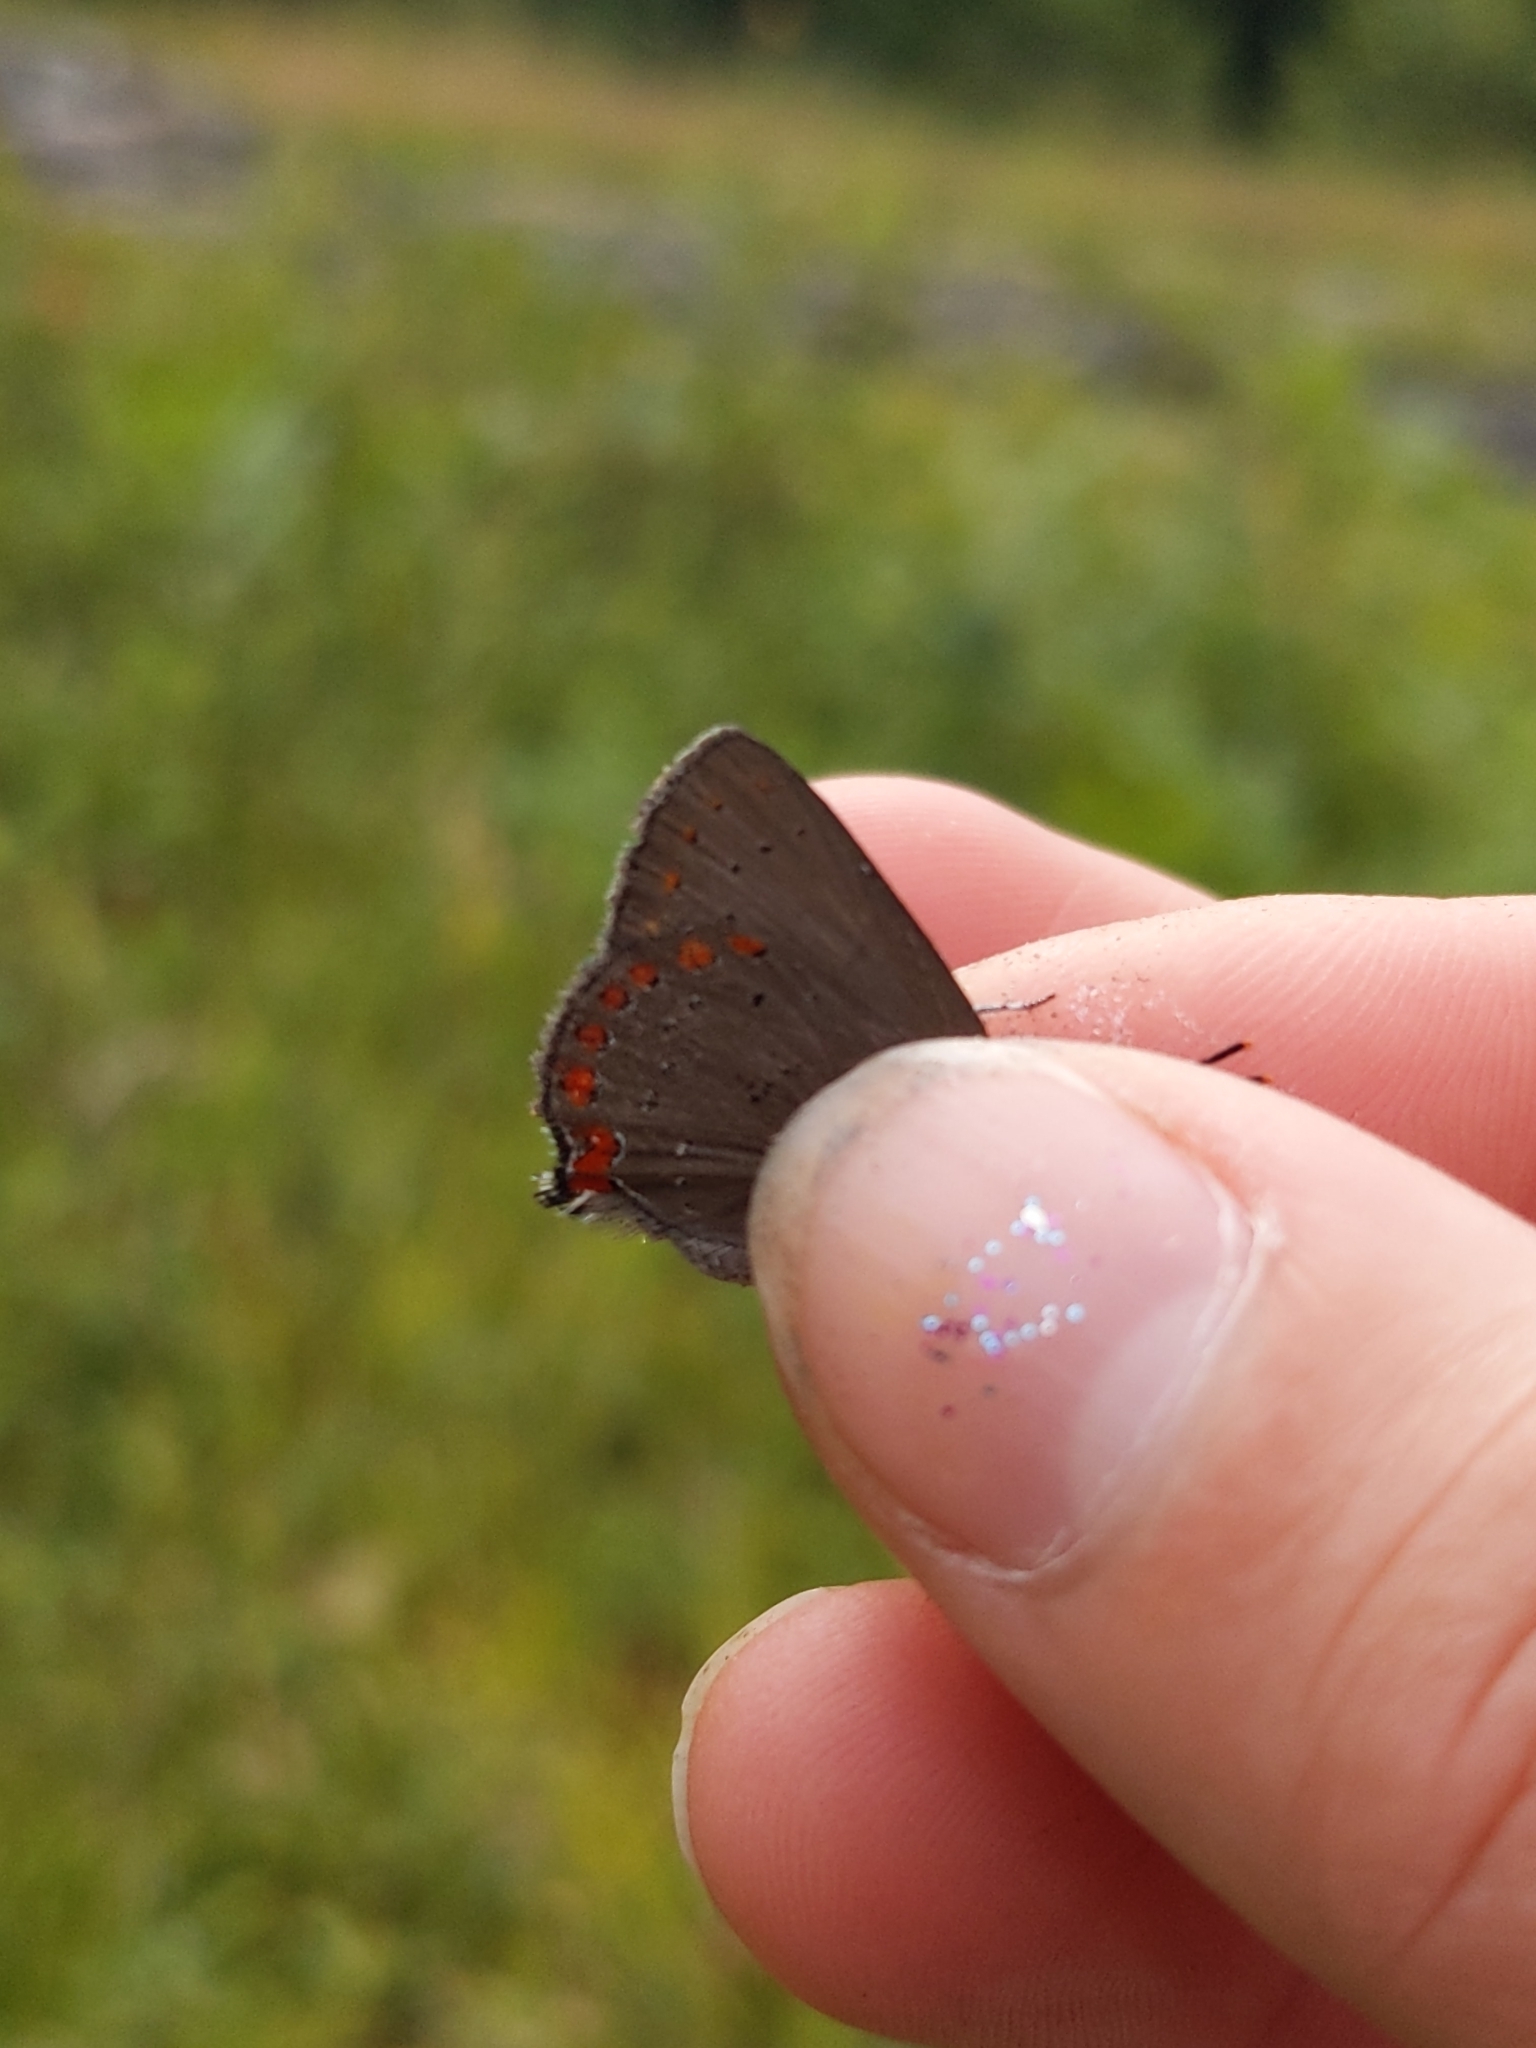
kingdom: Animalia
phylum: Arthropoda
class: Insecta
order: Lepidoptera
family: Lycaenidae
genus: Harkenclenus
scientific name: Harkenclenus titus
